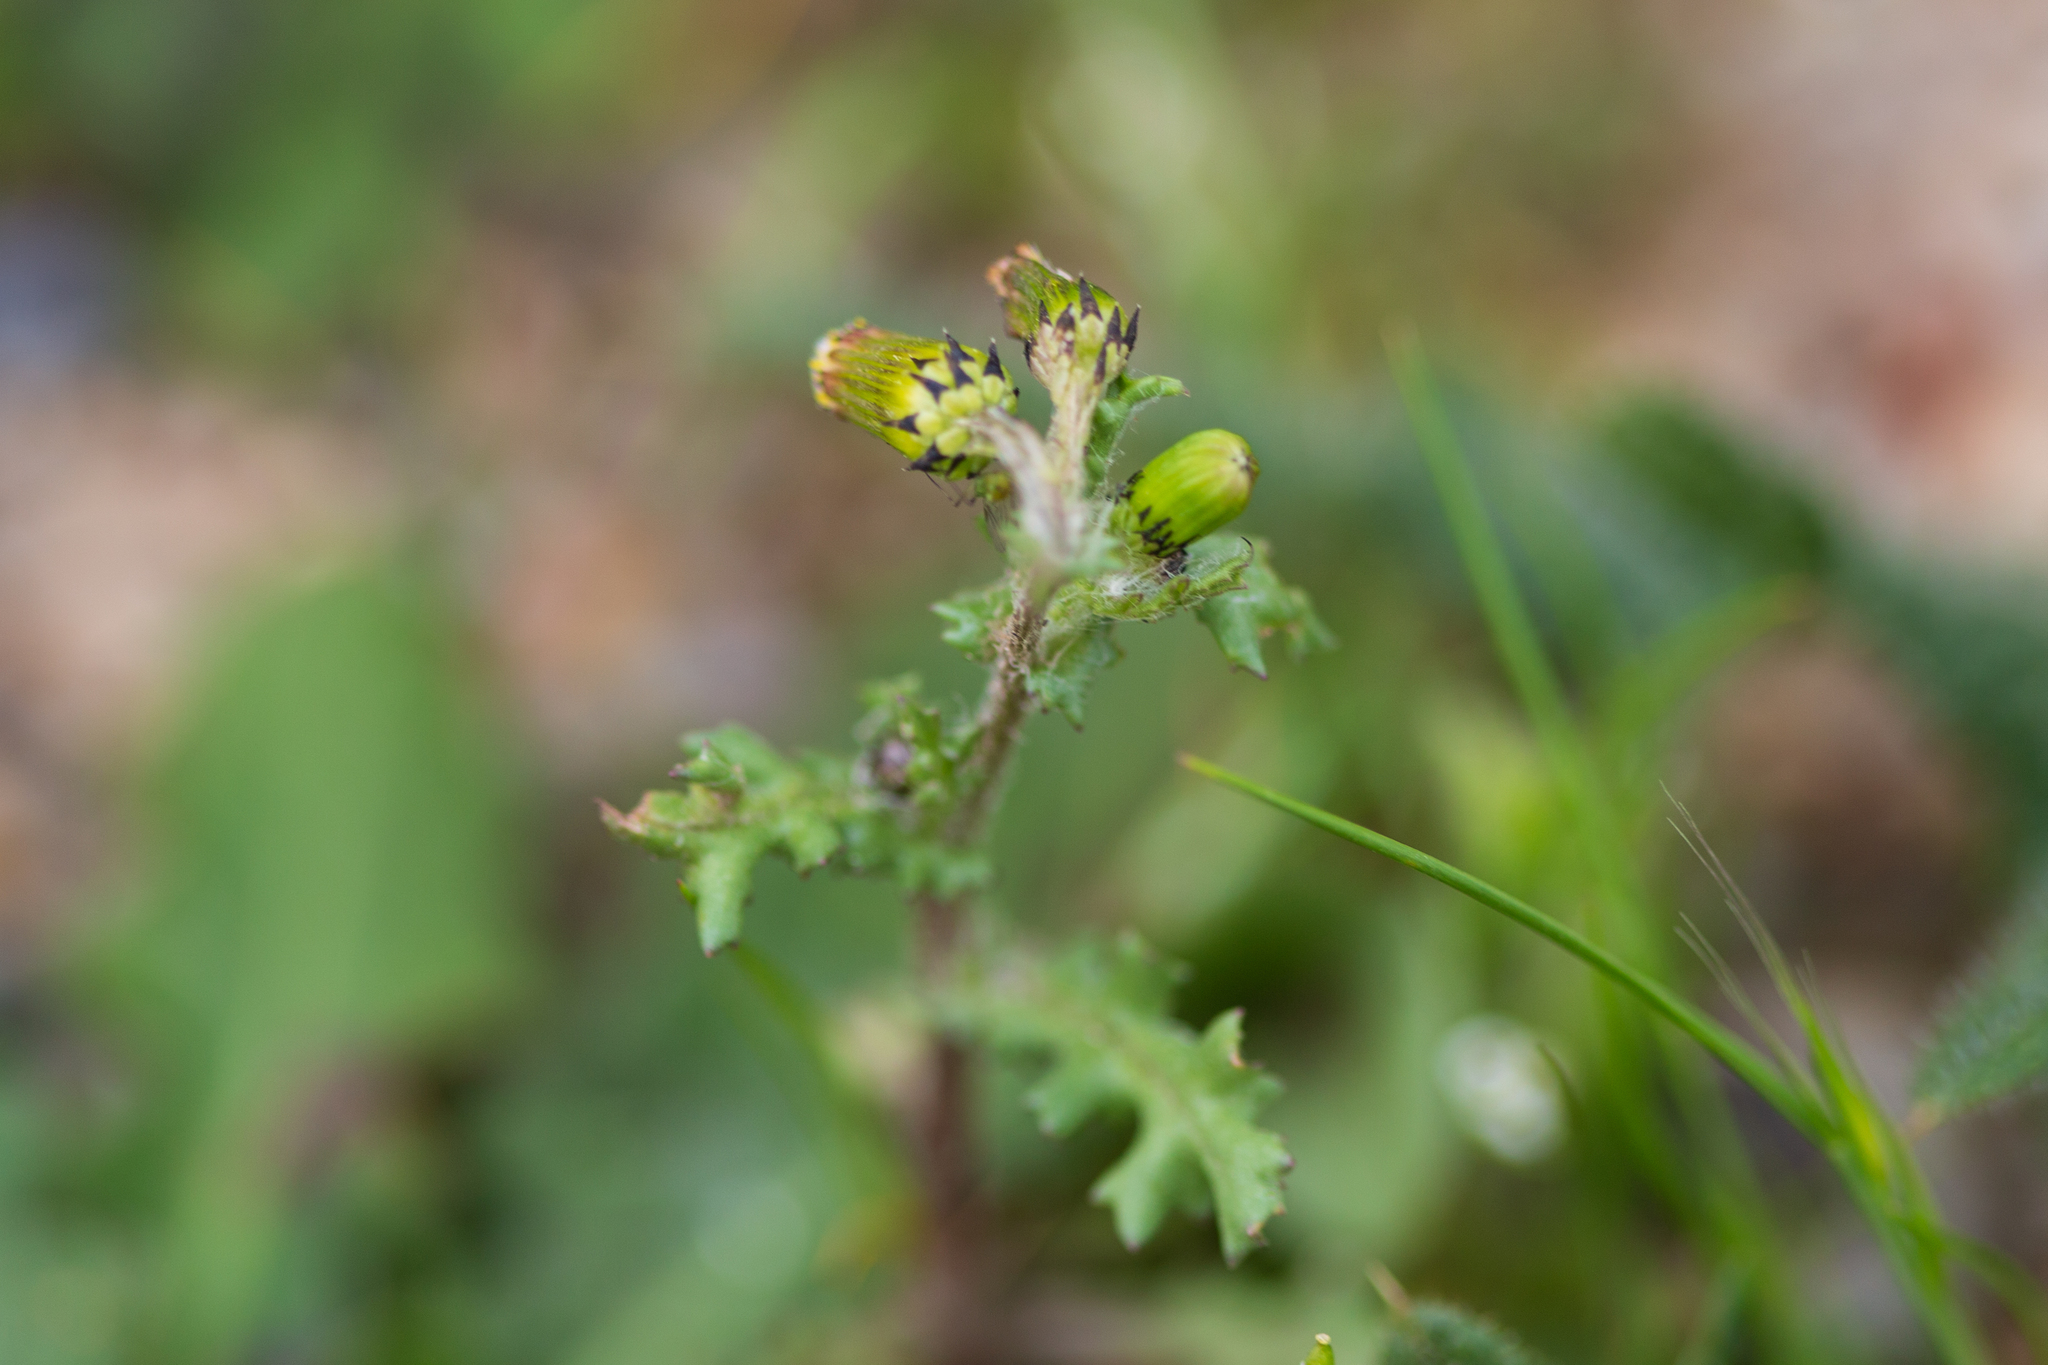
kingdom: Plantae
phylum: Tracheophyta
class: Magnoliopsida
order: Asterales
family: Asteraceae
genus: Senecio
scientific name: Senecio vulgaris
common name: Old-man-in-the-spring
